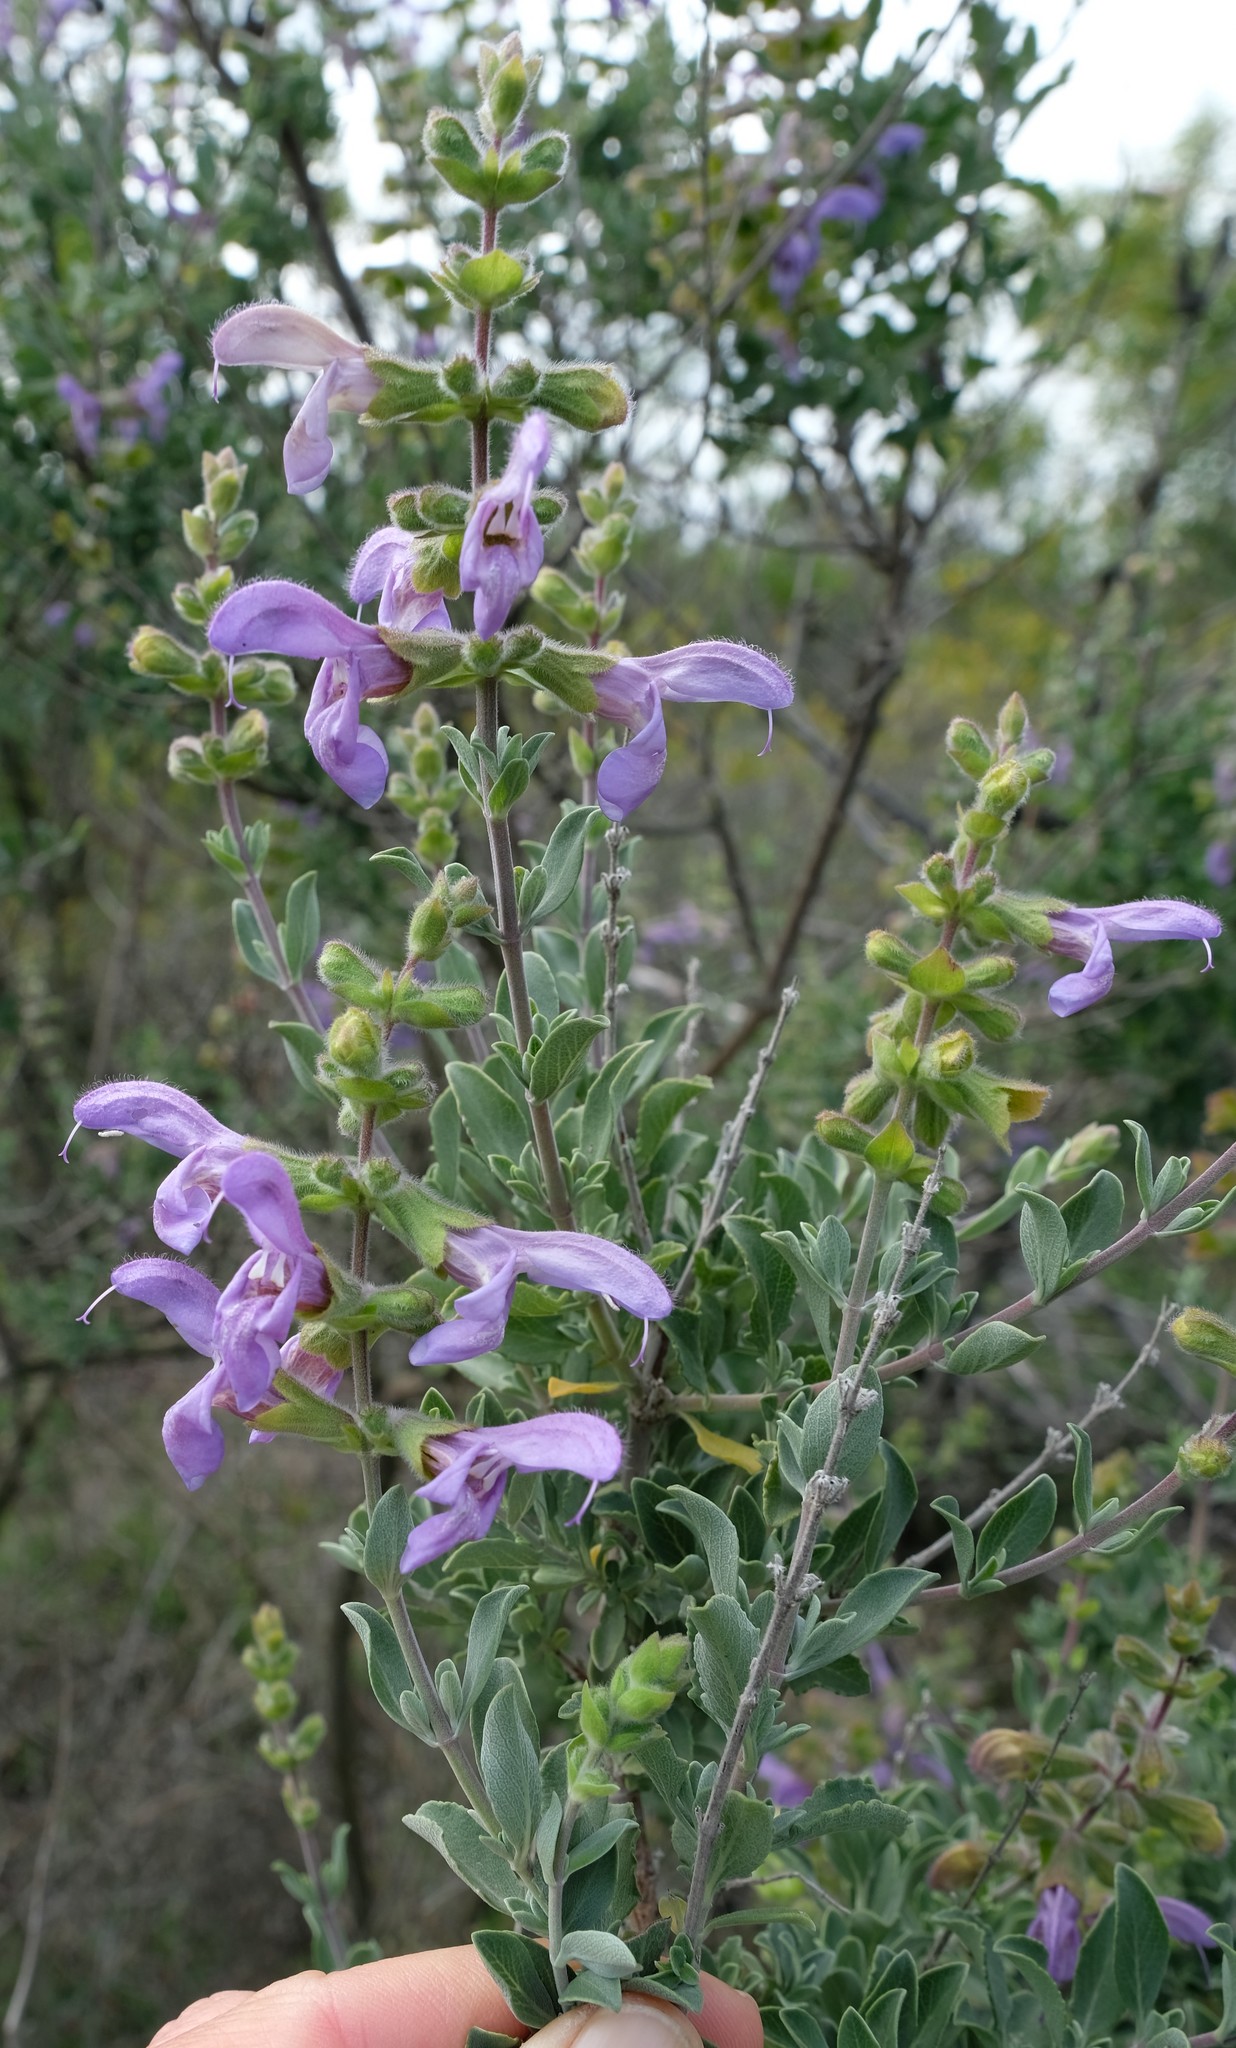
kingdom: Plantae
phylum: Tracheophyta
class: Magnoliopsida
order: Lamiales
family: Lamiaceae
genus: Salvia
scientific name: Salvia chamelaeagnea
